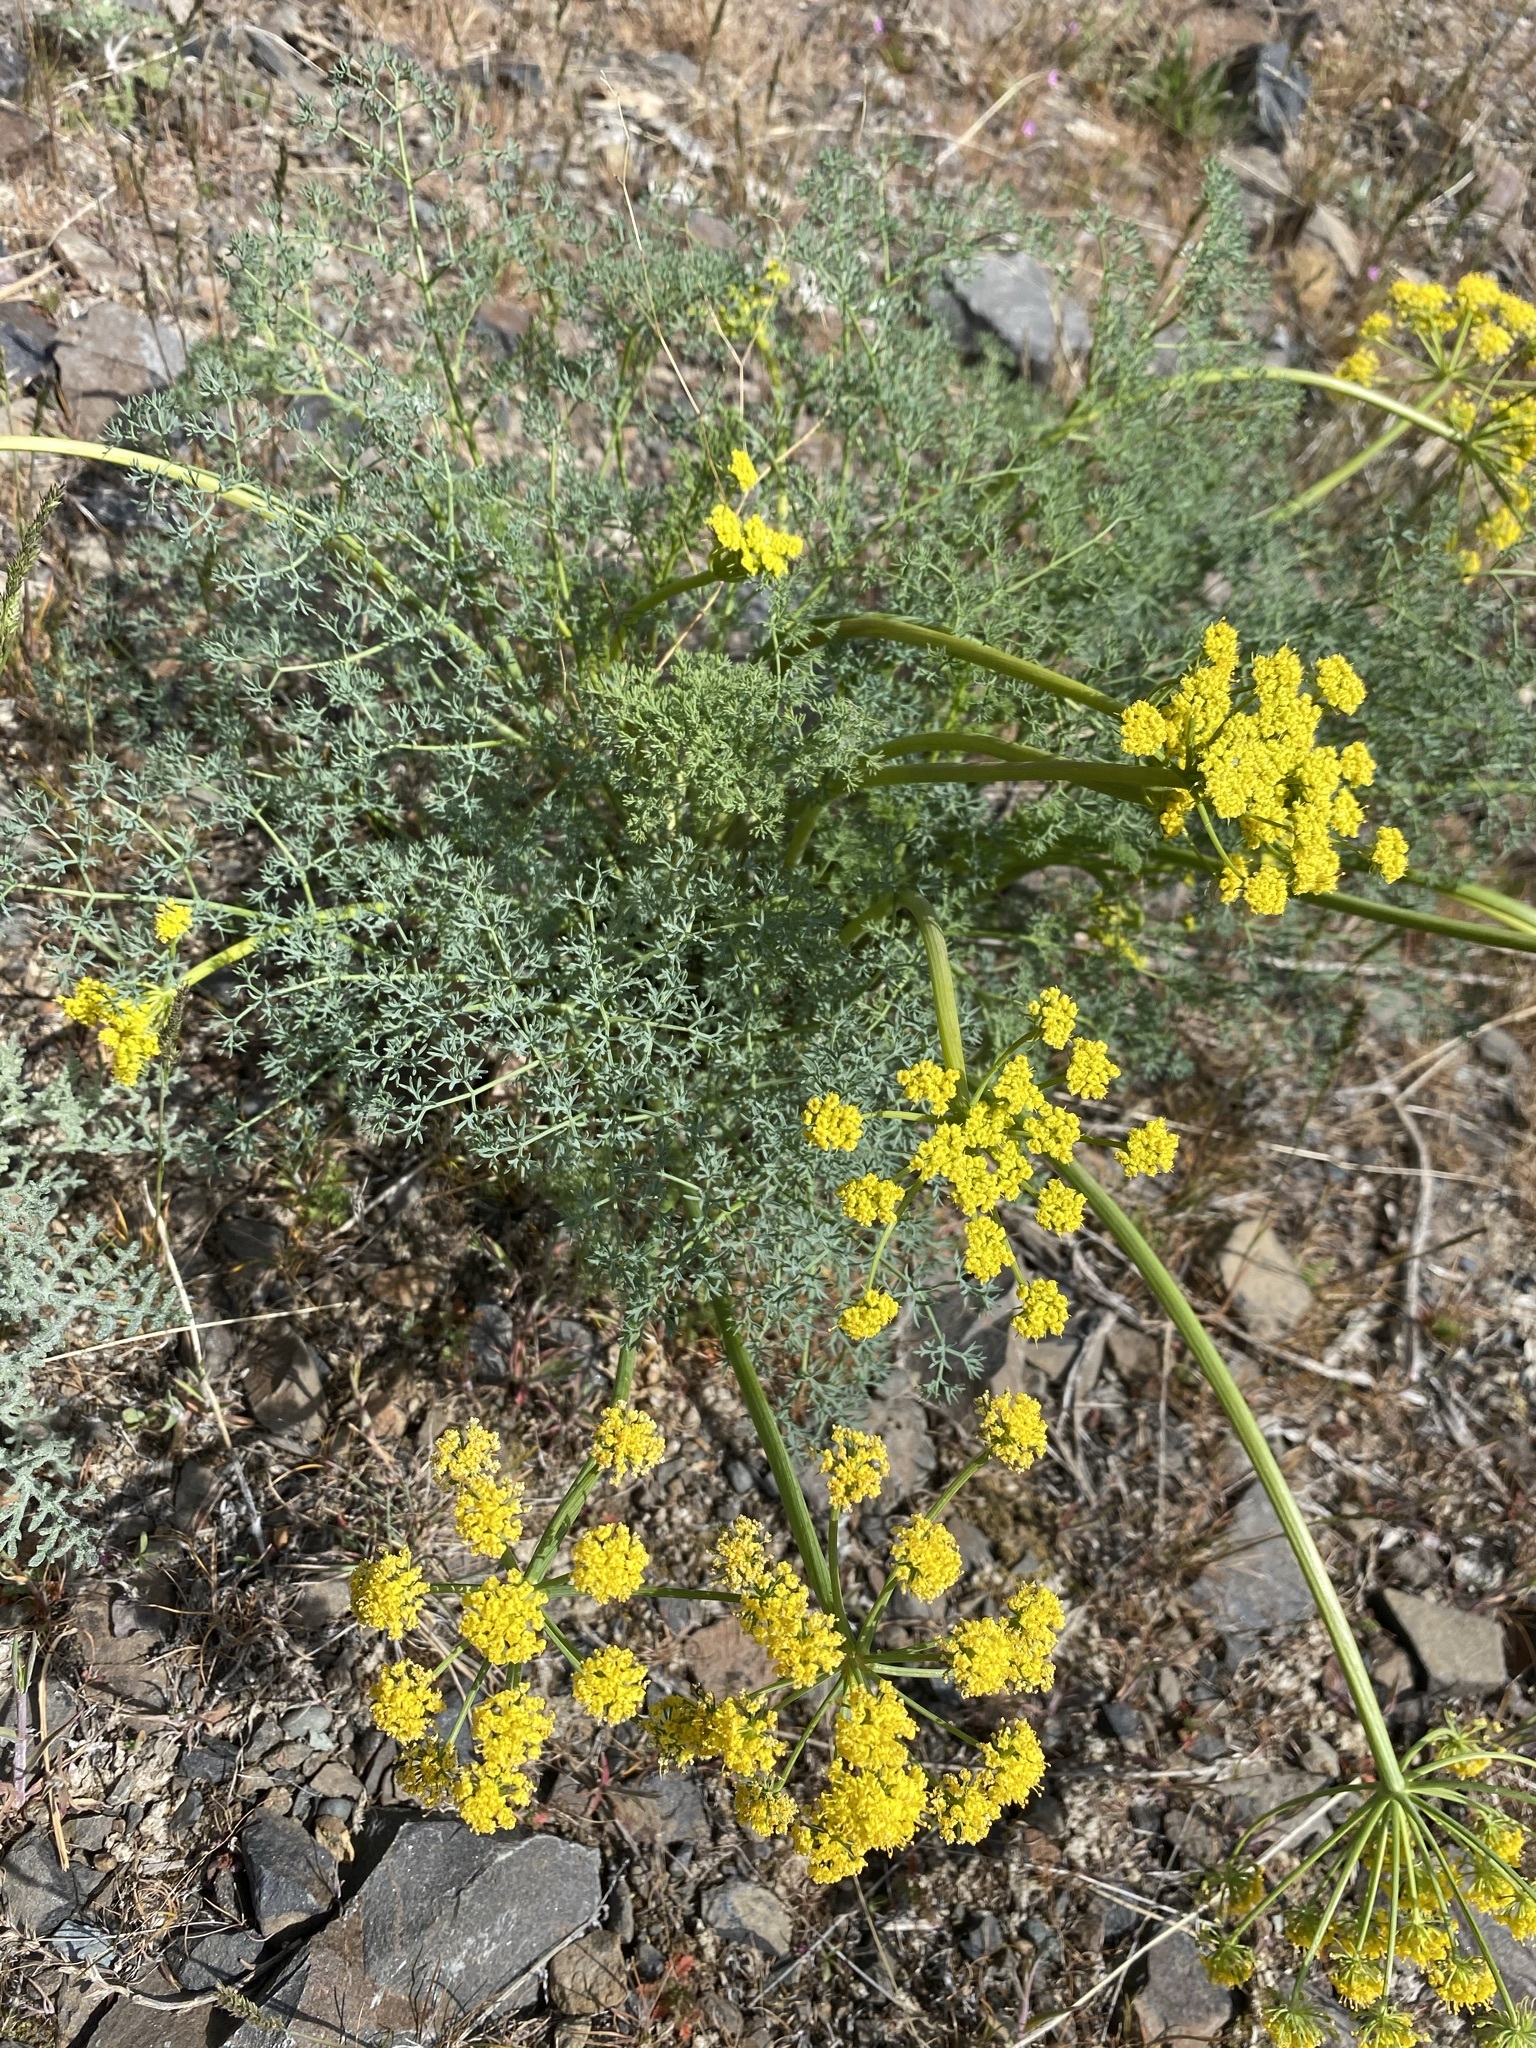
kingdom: Plantae
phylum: Tracheophyta
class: Magnoliopsida
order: Apiales
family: Apiaceae
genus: Lomatium
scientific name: Lomatium papilioniferum
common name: Butterfly lomatium
